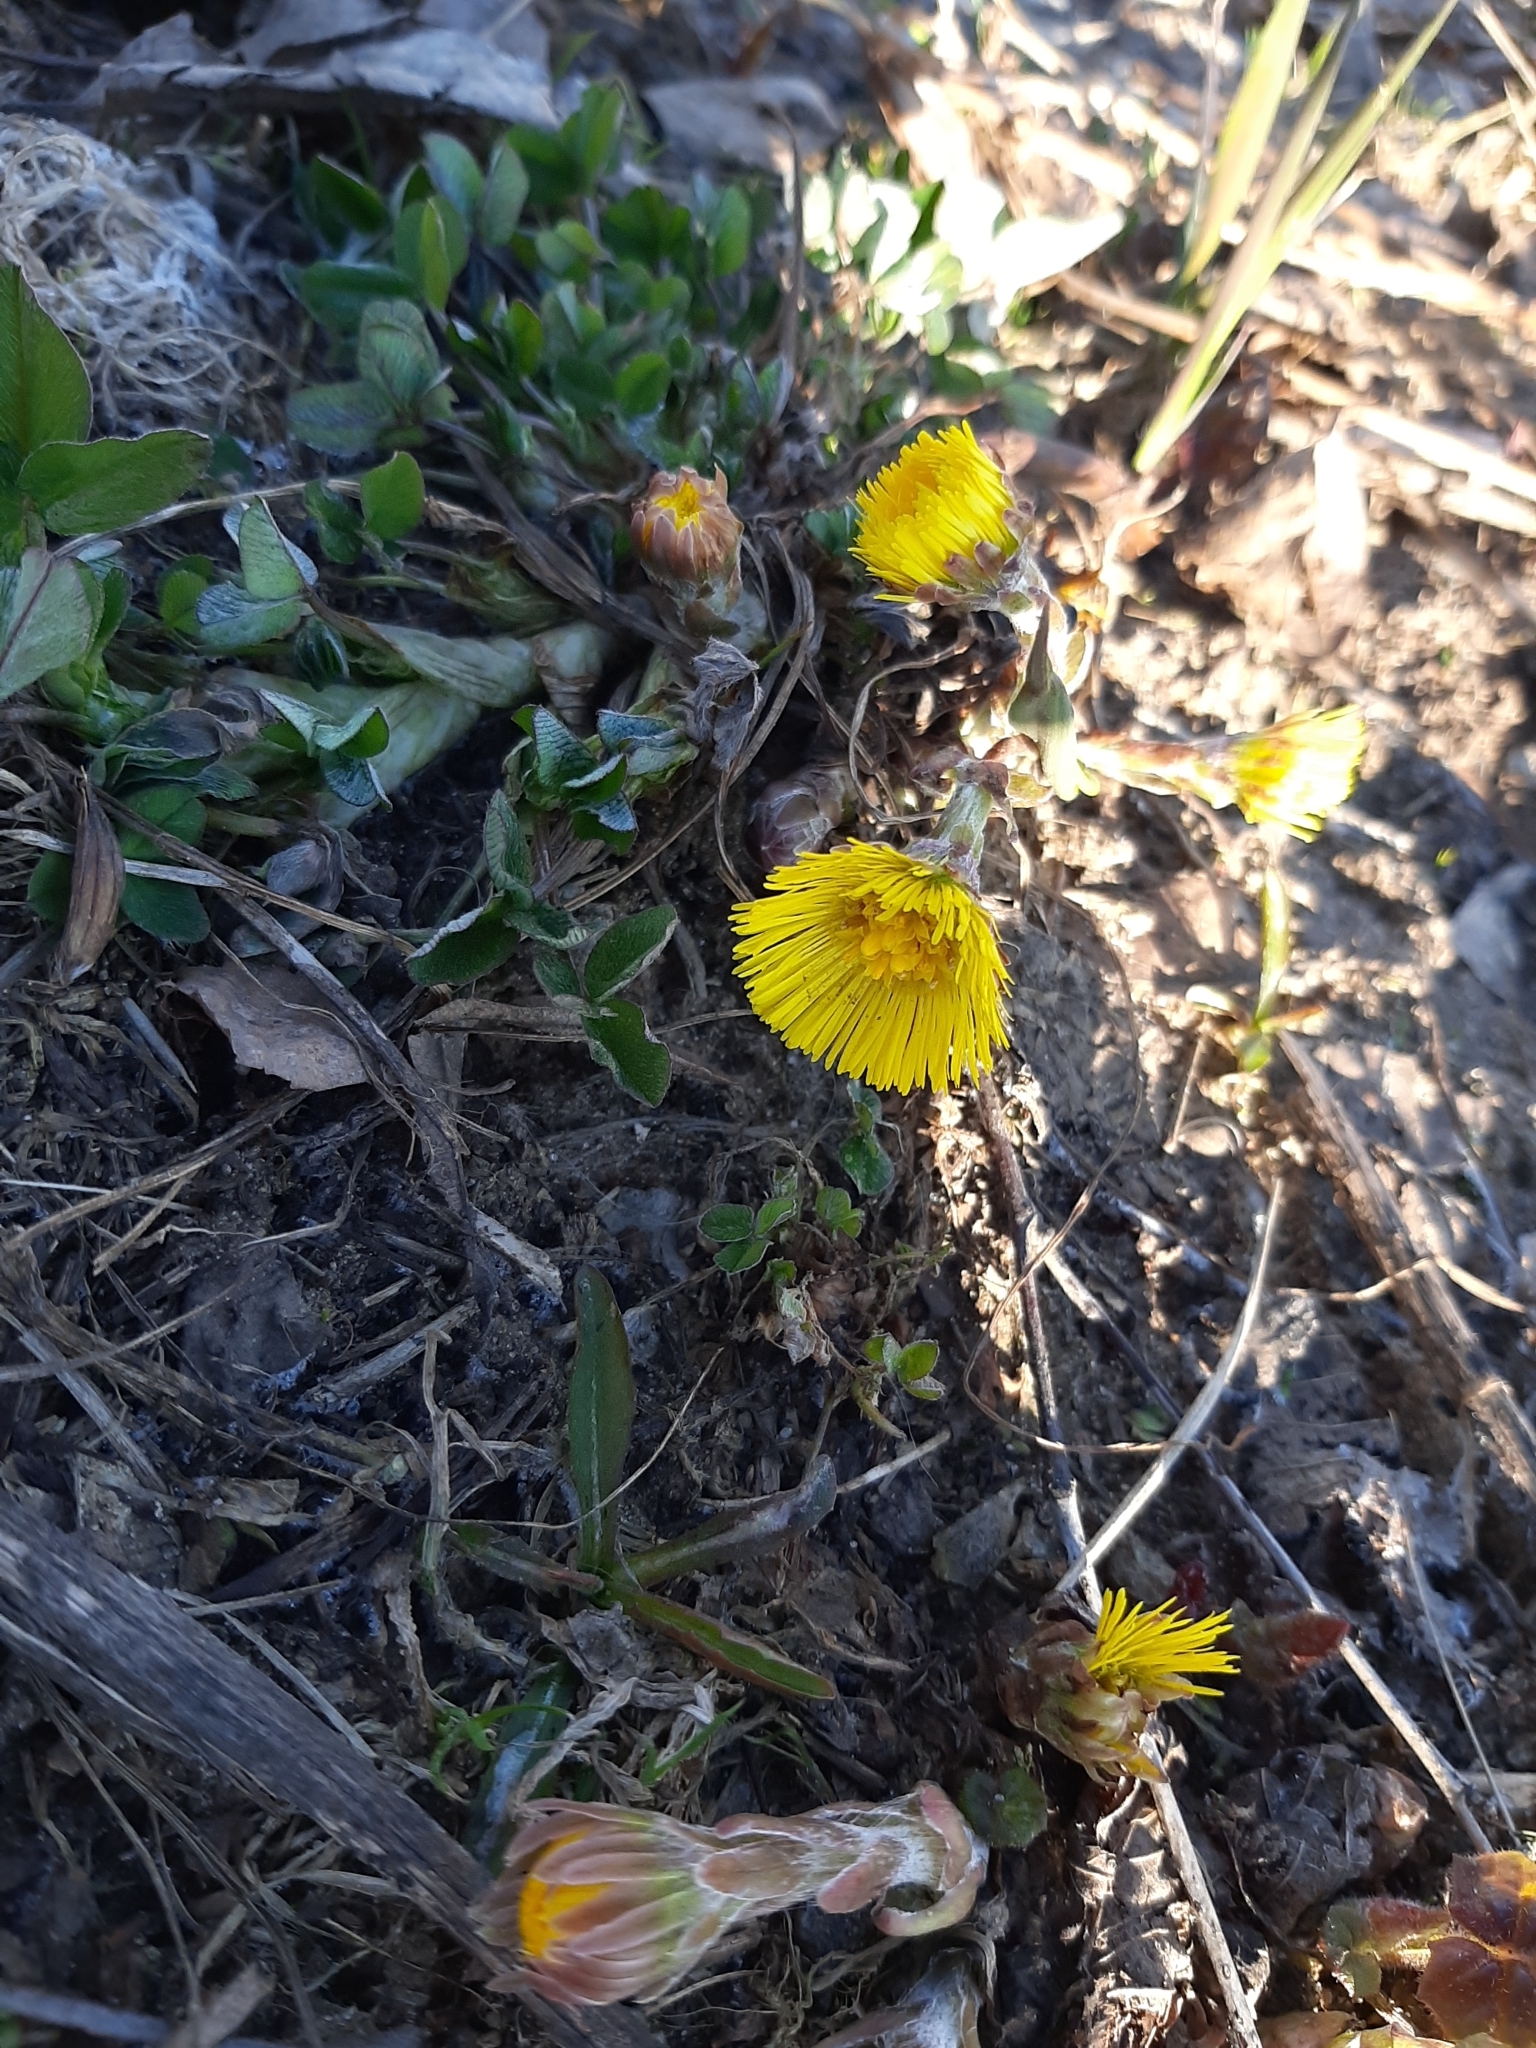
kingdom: Plantae
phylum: Tracheophyta
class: Magnoliopsida
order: Asterales
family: Asteraceae
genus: Tussilago
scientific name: Tussilago farfara
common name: Coltsfoot
